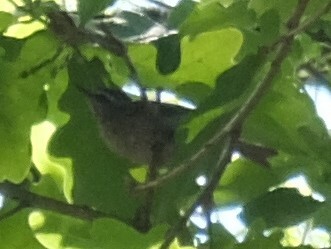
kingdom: Animalia
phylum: Chordata
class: Aves
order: Passeriformes
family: Regulidae
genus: Regulus
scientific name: Regulus ignicapilla
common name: Firecrest
